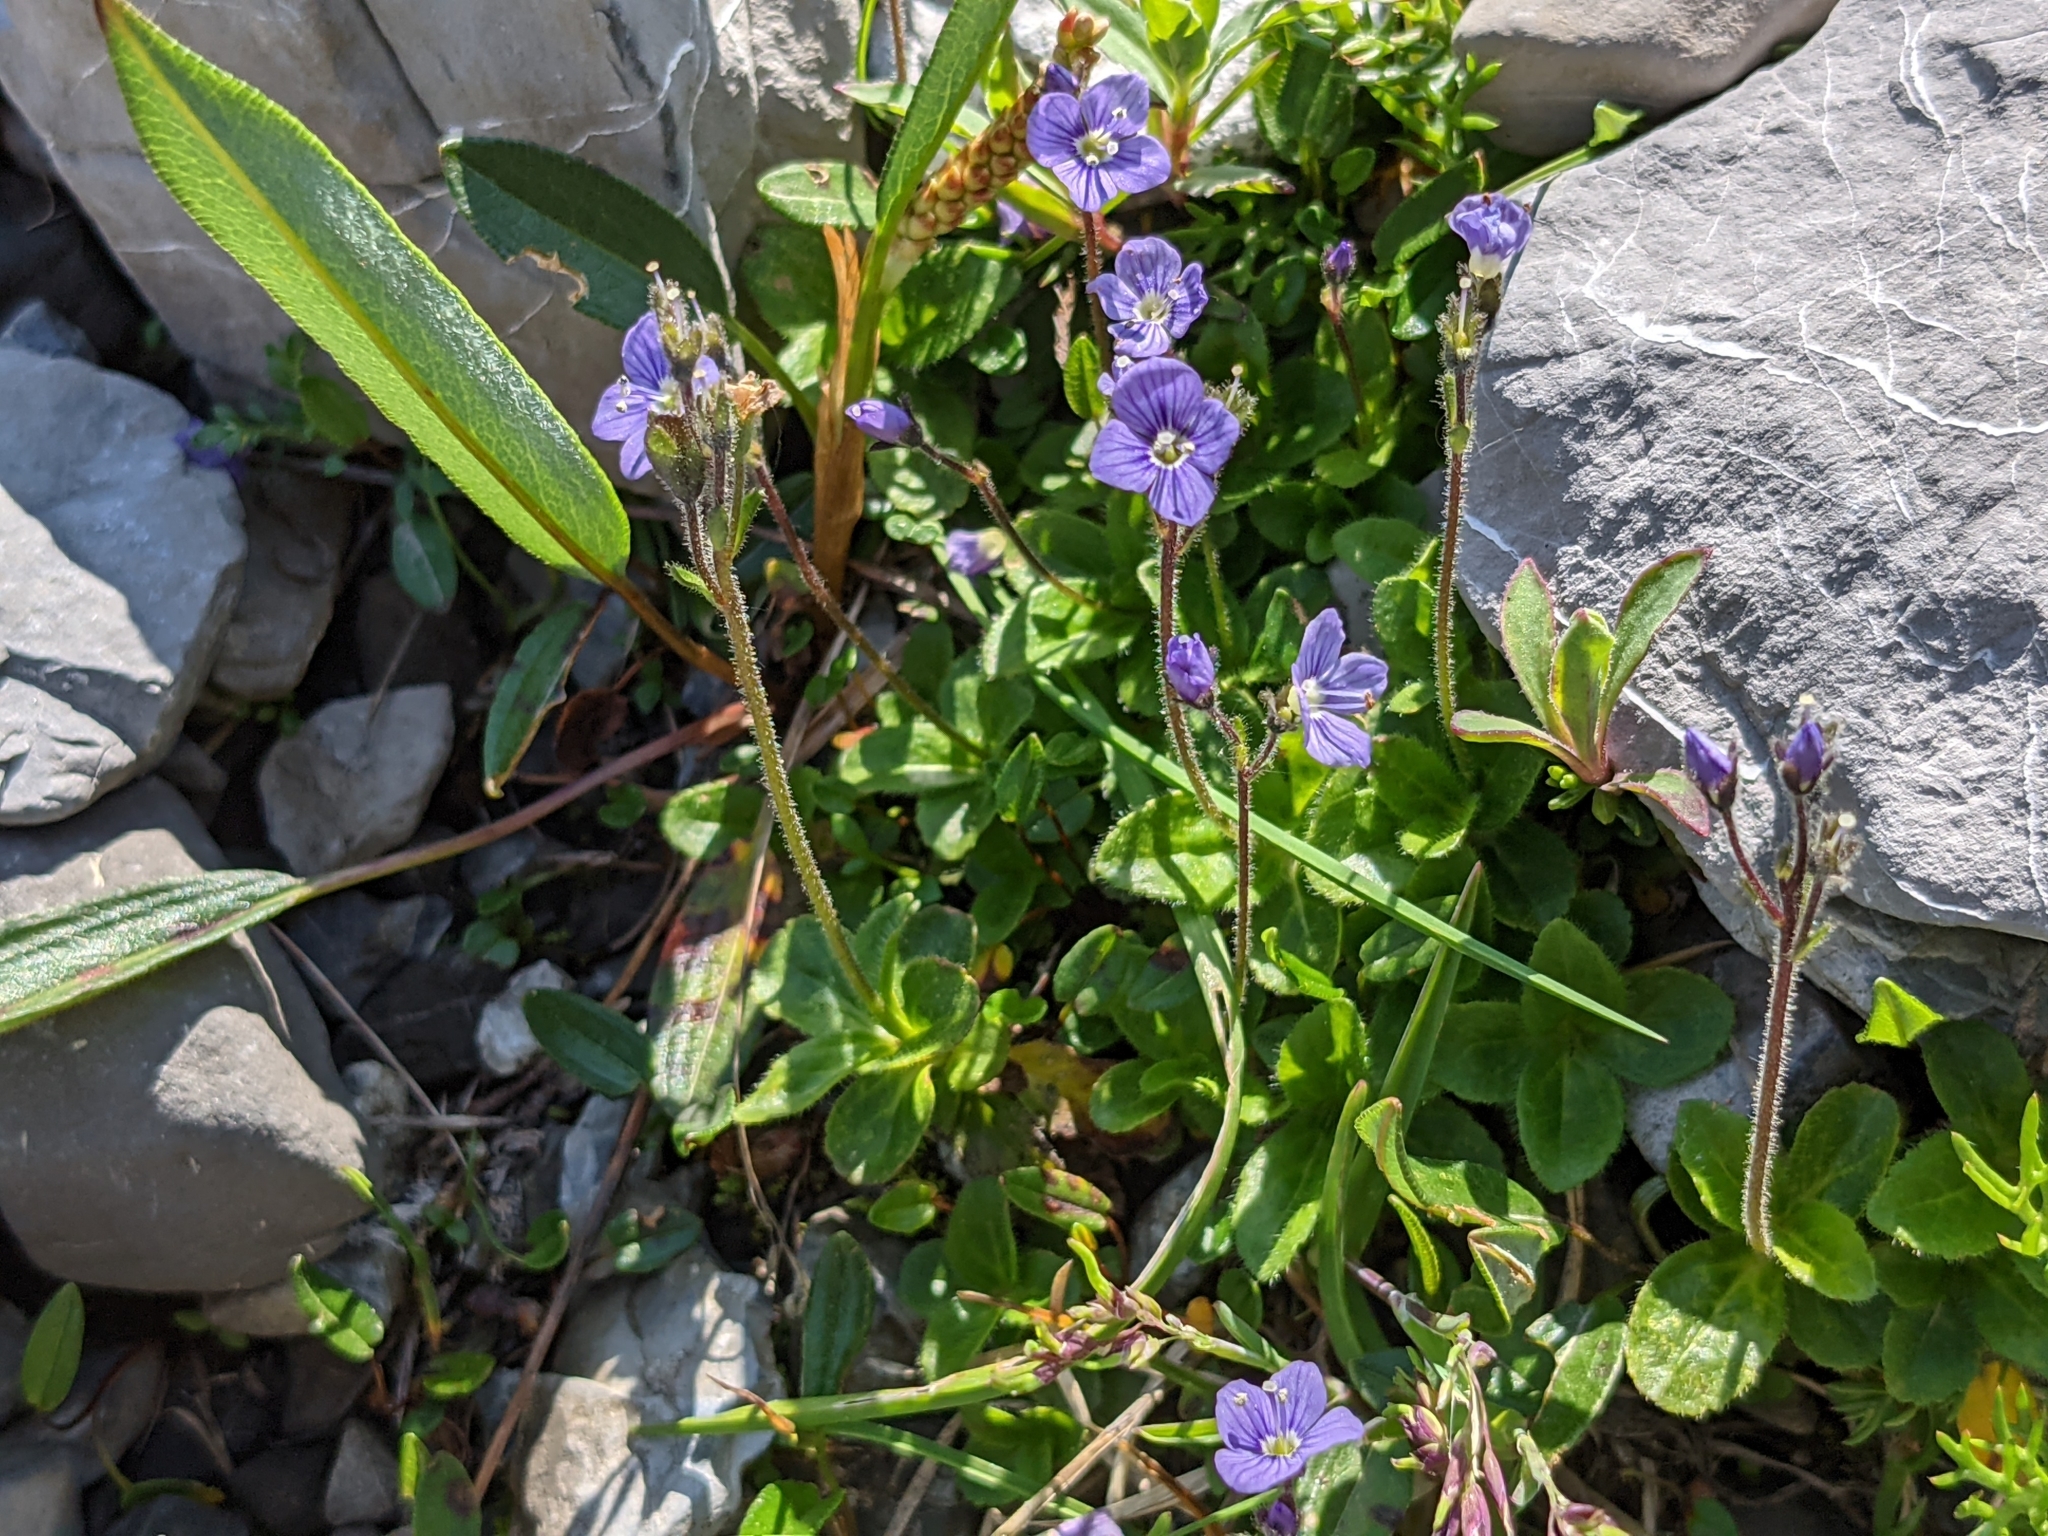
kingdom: Plantae
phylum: Tracheophyta
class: Magnoliopsida
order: Lamiales
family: Plantaginaceae
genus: Veronica
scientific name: Veronica aphylla
